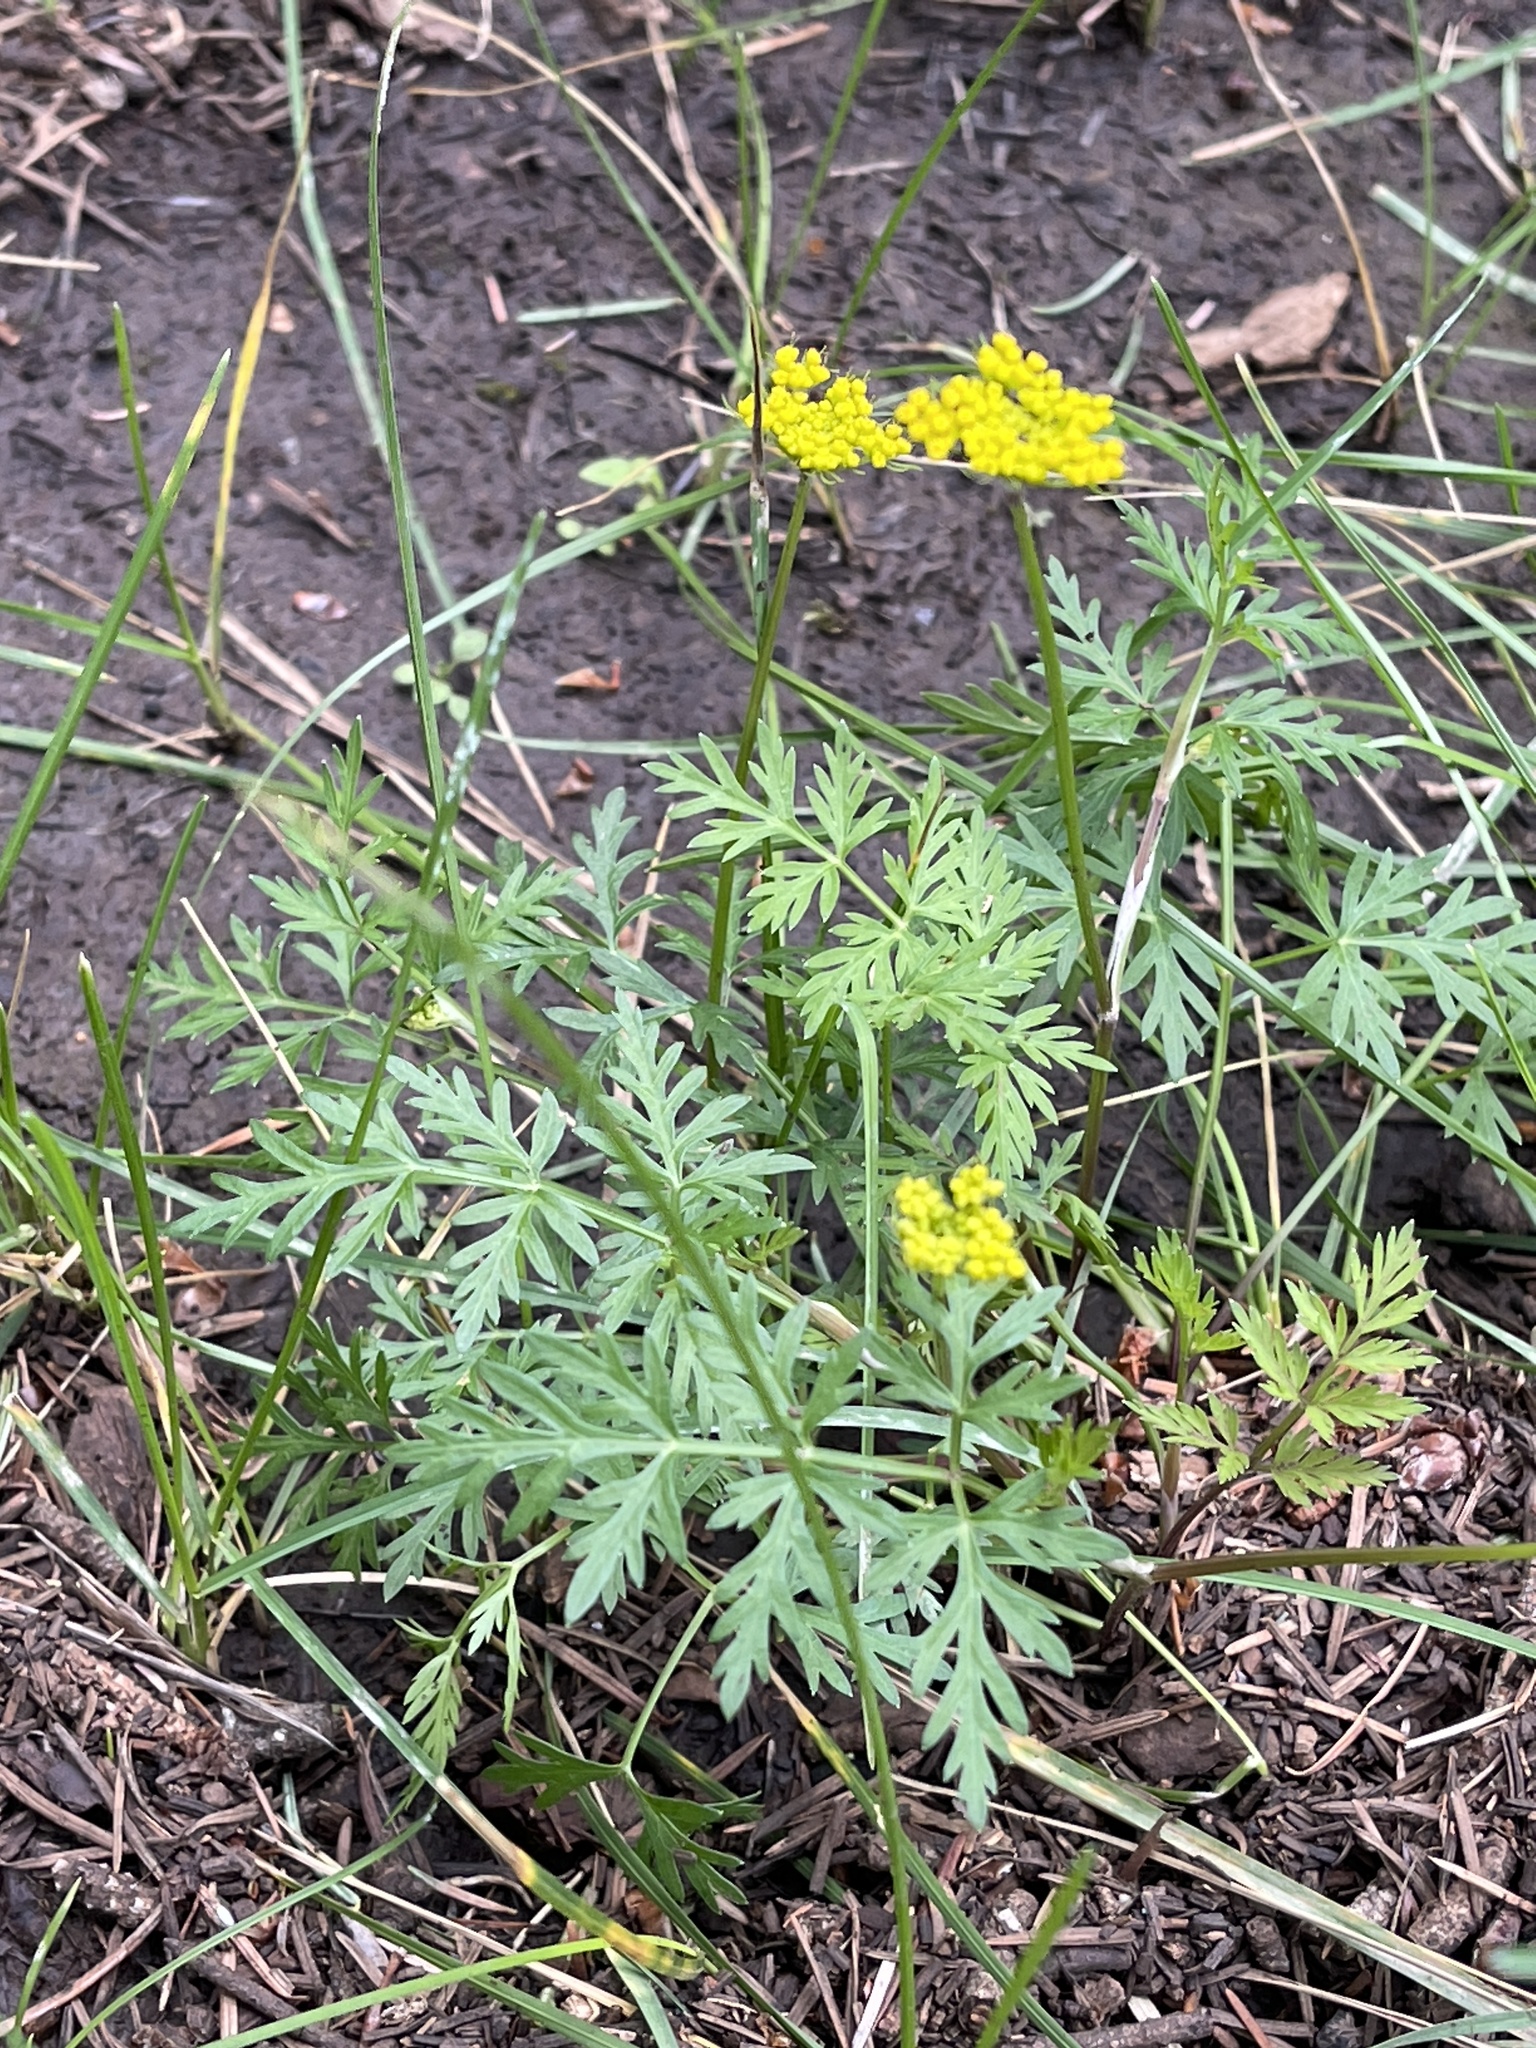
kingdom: Plantae
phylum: Tracheophyta
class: Magnoliopsida
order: Apiales
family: Apiaceae
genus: Cymopterus
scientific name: Cymopterus lemmonii
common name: Lemmon's spring-parsley
